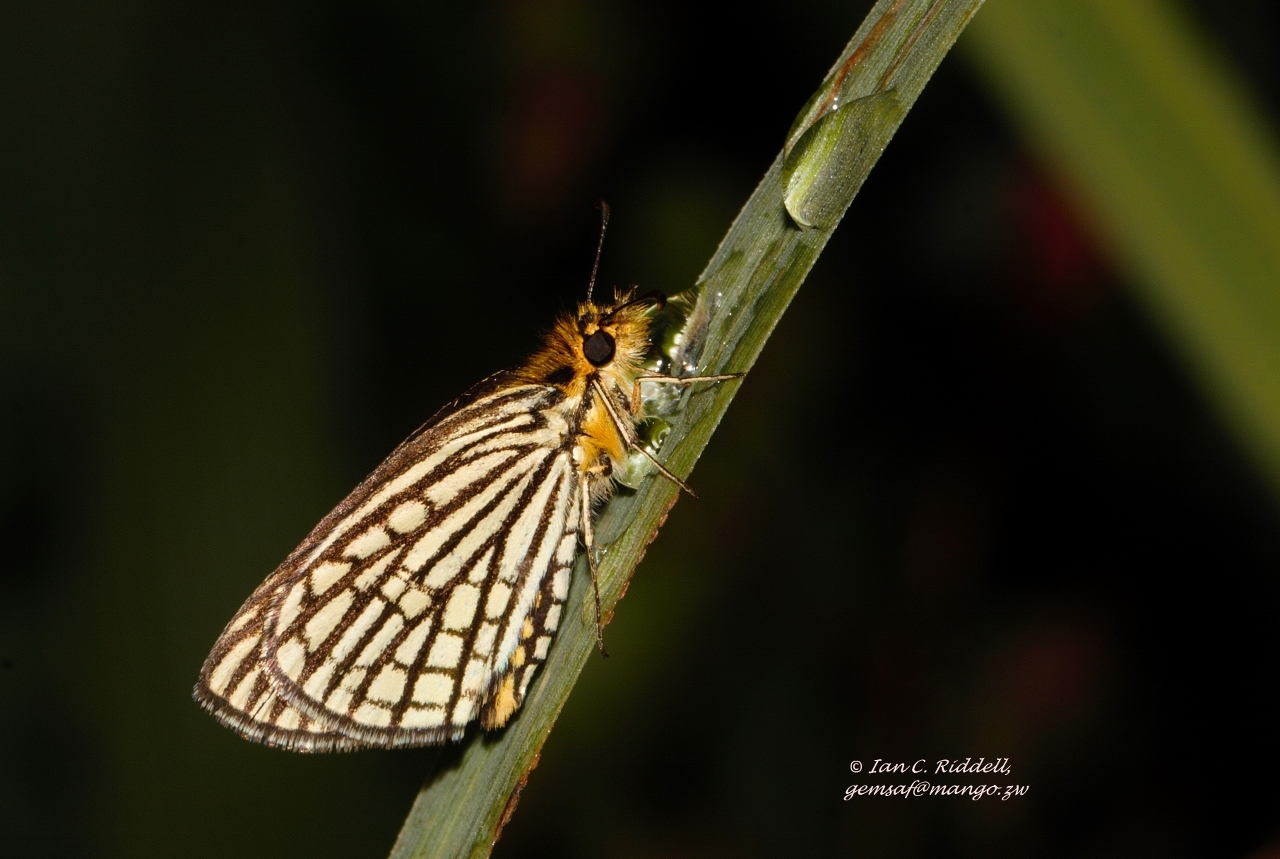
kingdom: Animalia
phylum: Arthropoda
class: Insecta
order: Lepidoptera
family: Hesperiidae
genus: Willema
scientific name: Willema willemi
